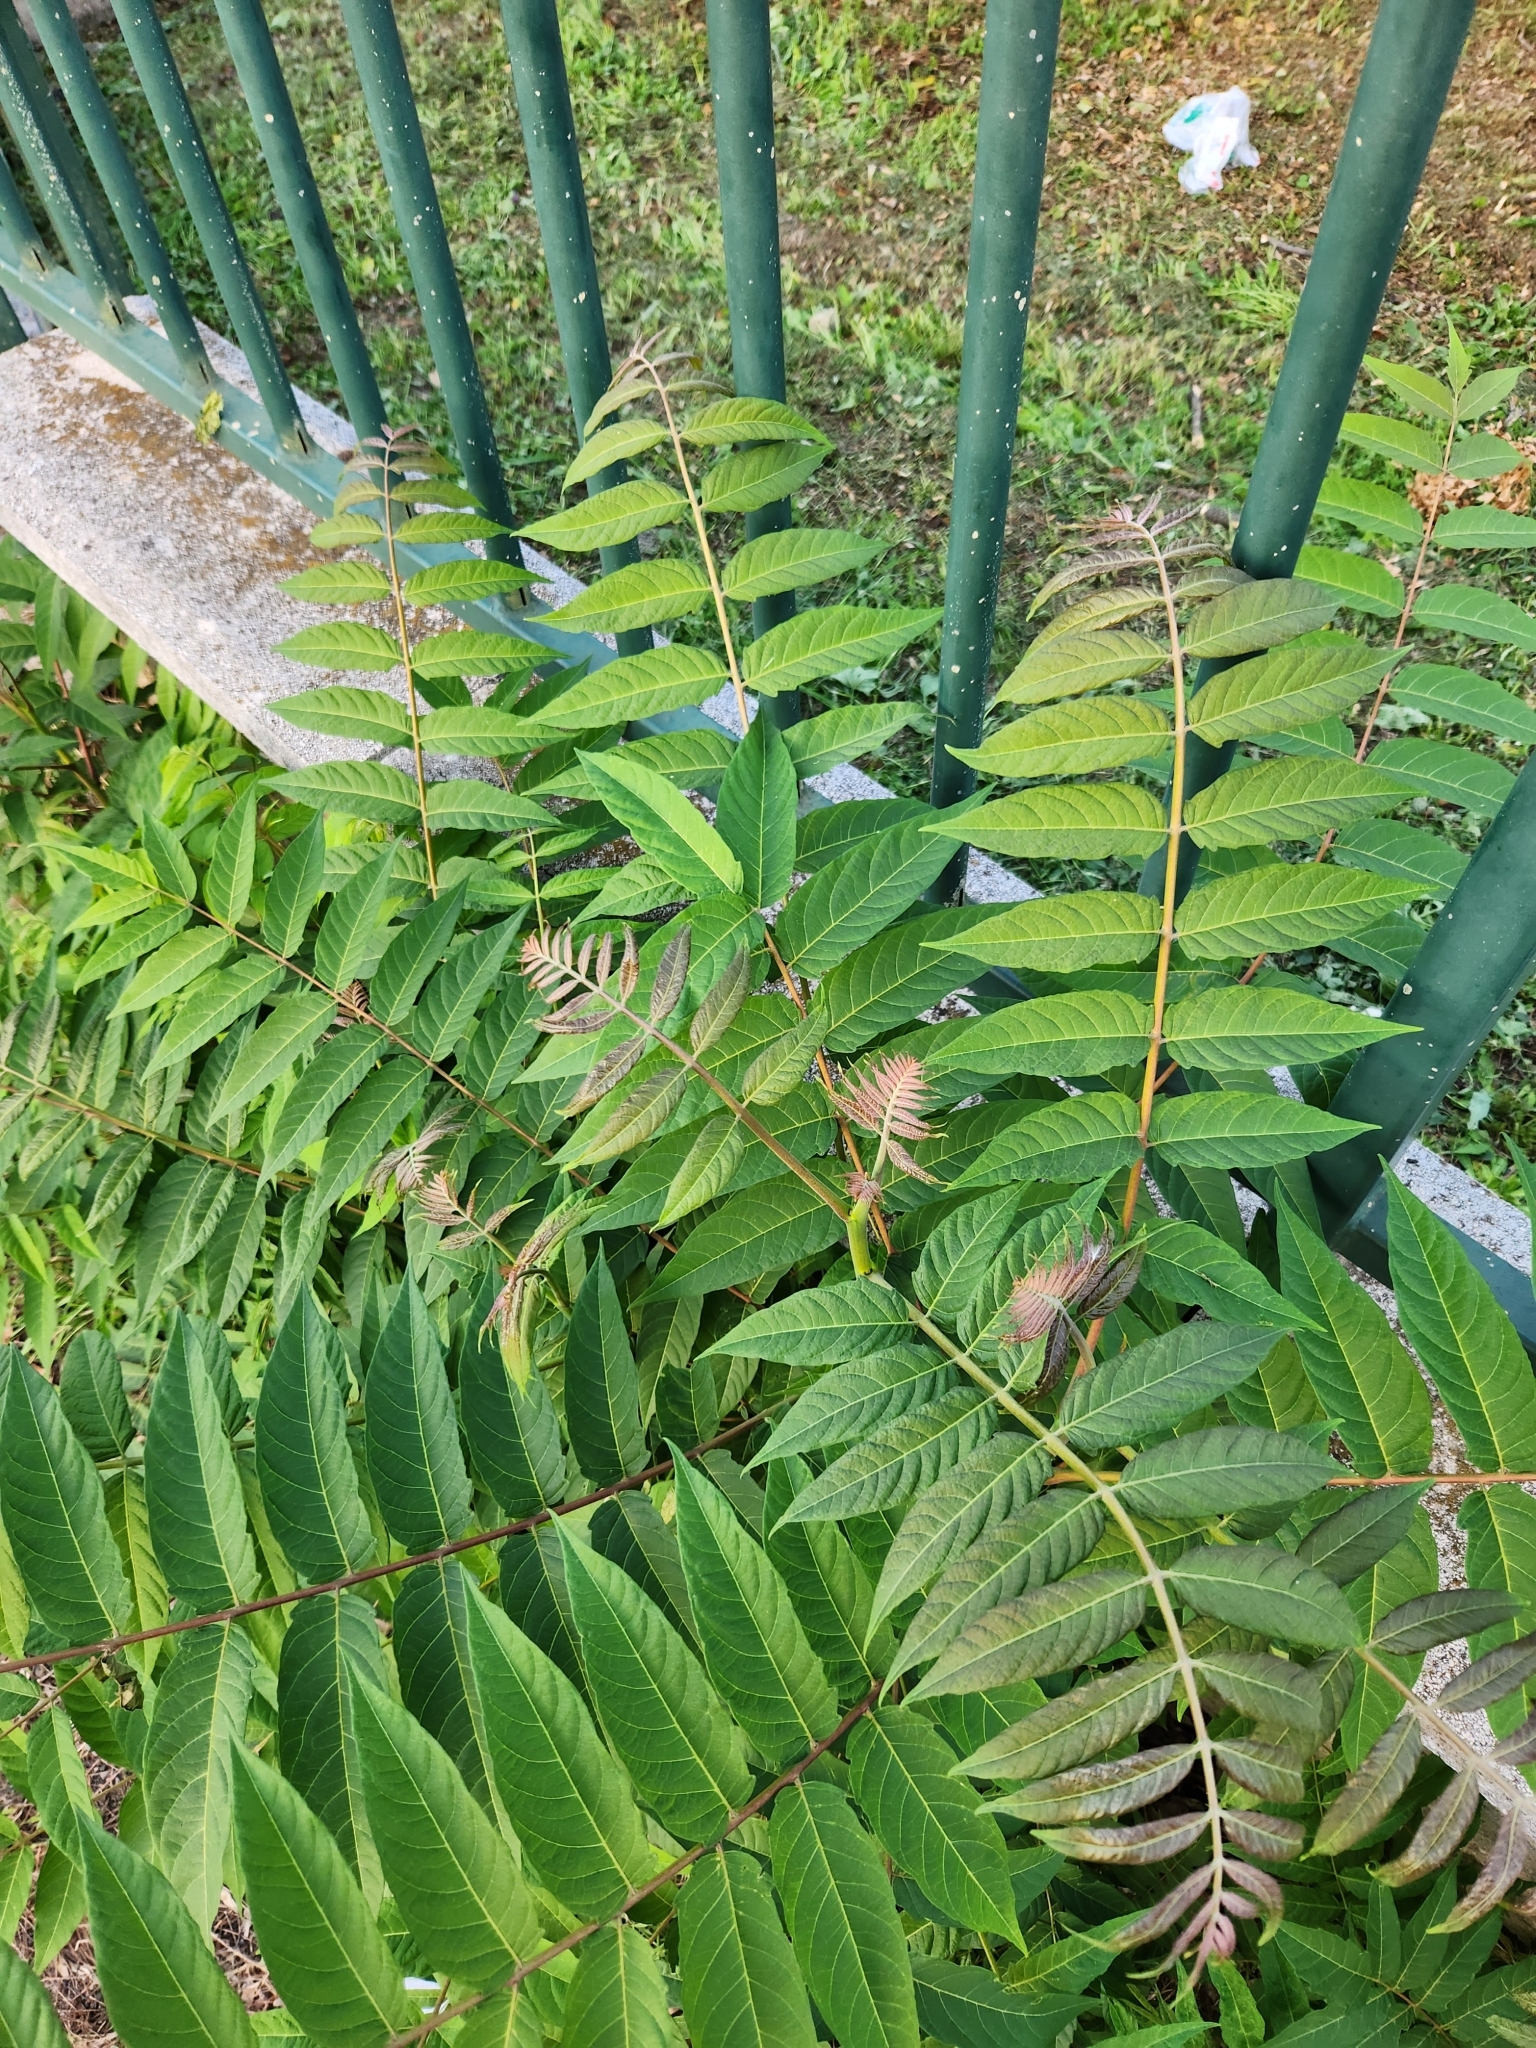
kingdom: Plantae
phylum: Tracheophyta
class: Magnoliopsida
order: Sapindales
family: Simaroubaceae
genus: Ailanthus
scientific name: Ailanthus altissima
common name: Tree-of-heaven
